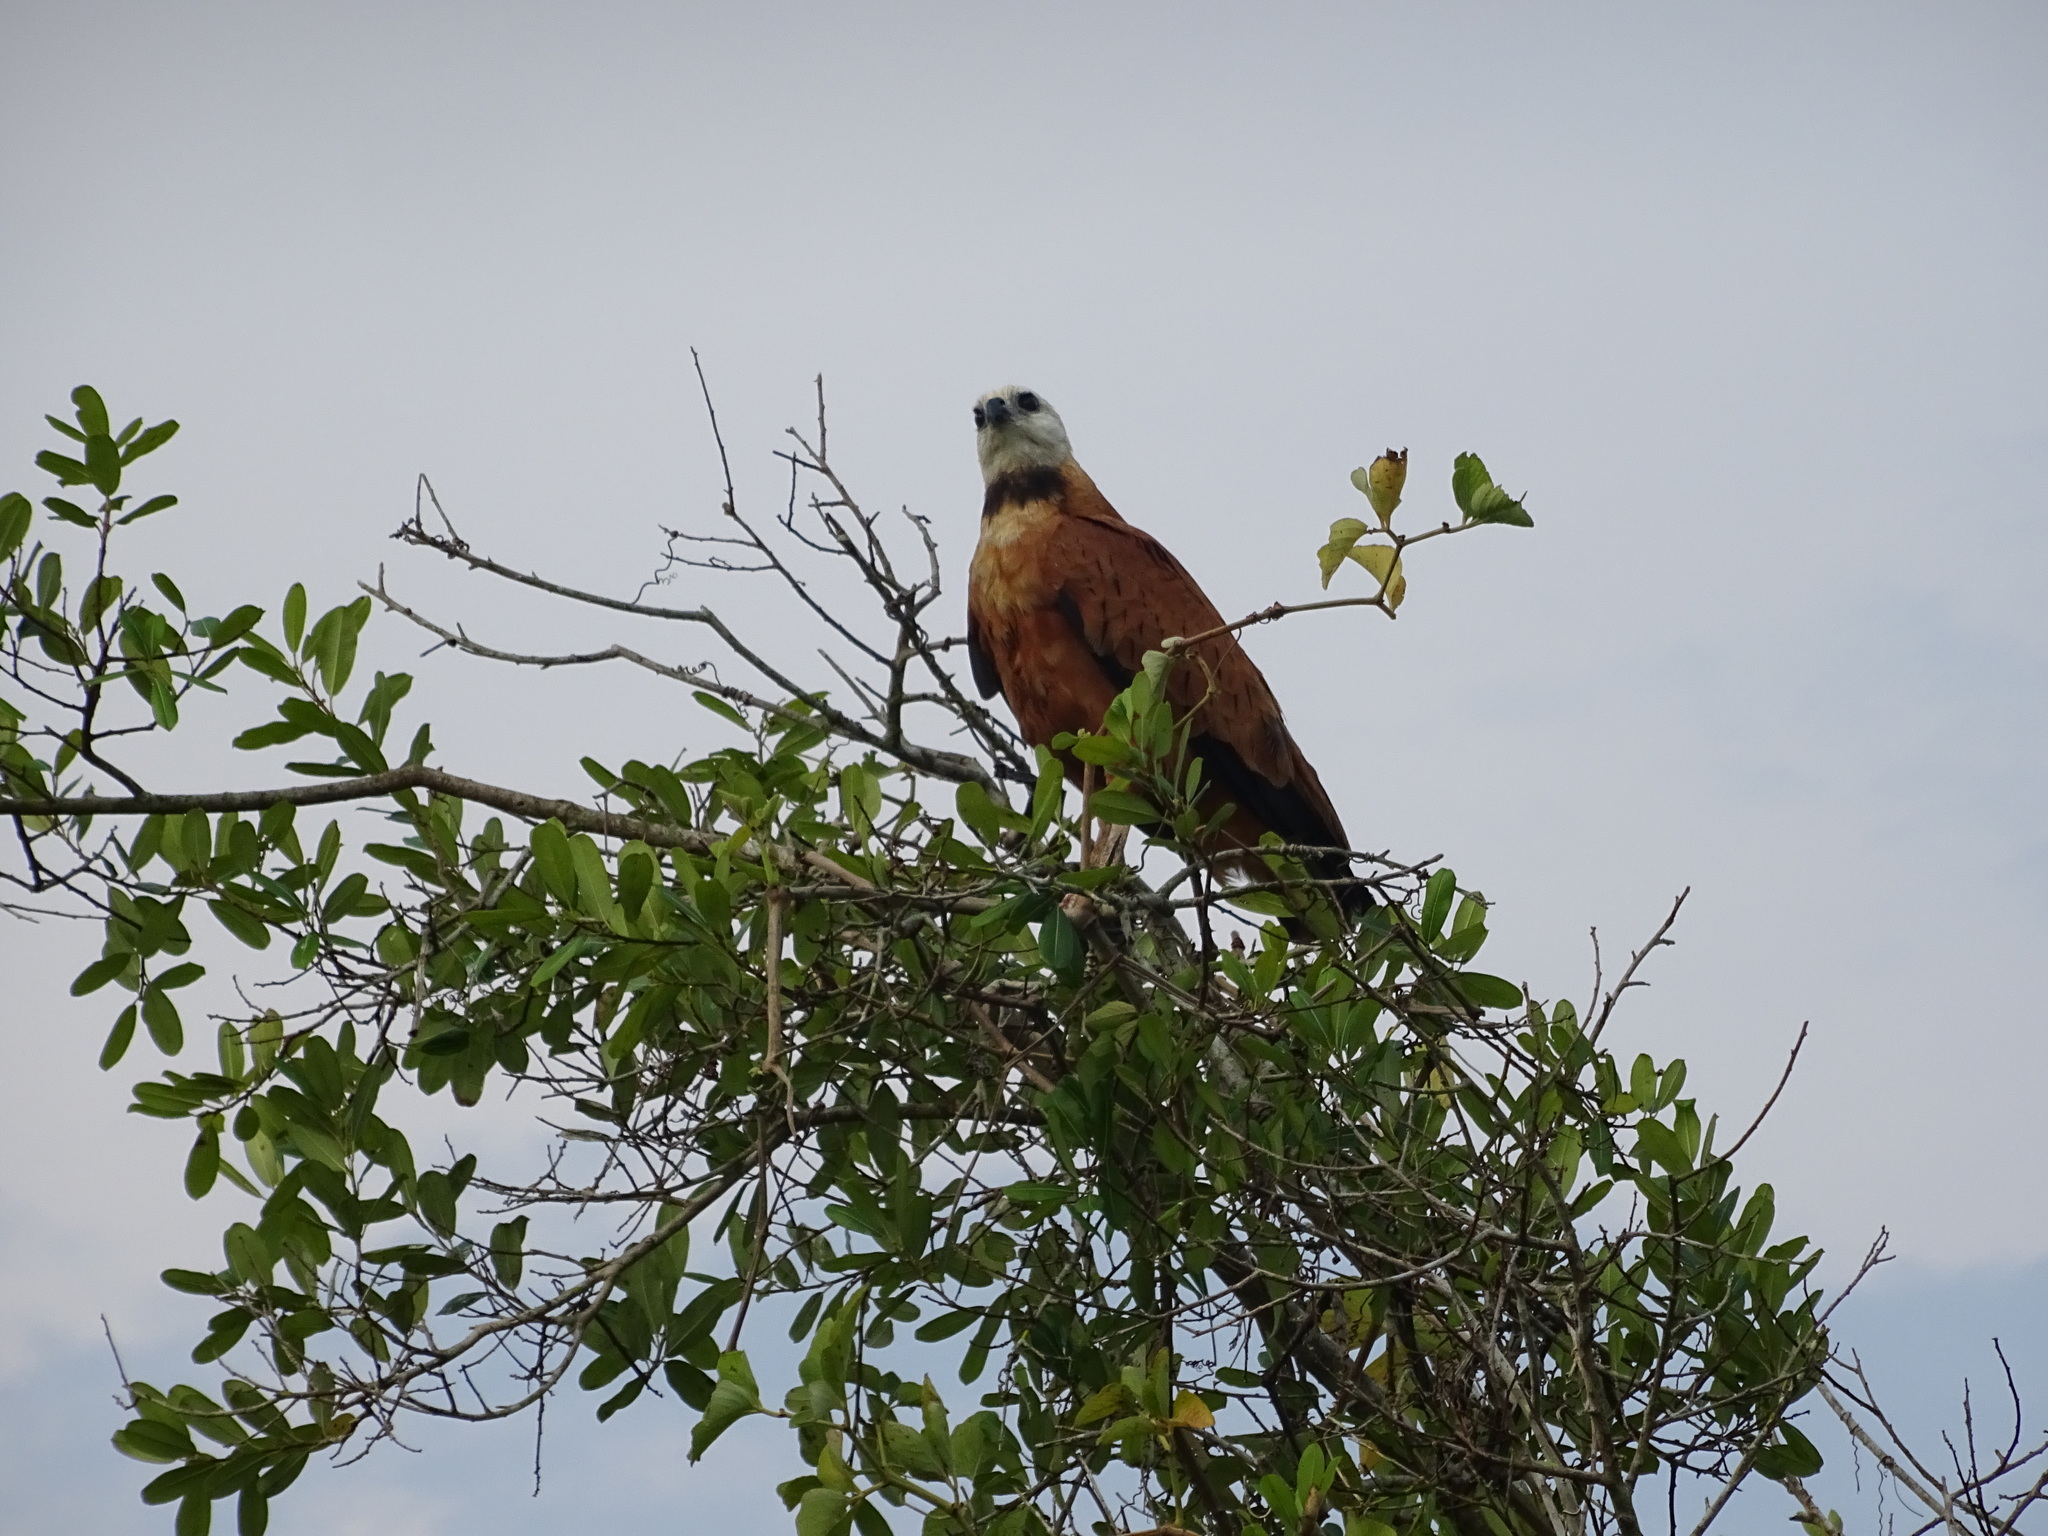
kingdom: Animalia
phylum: Chordata
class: Aves
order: Accipitriformes
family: Accipitridae
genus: Busarellus
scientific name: Busarellus nigricollis
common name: Black-collared hawk
